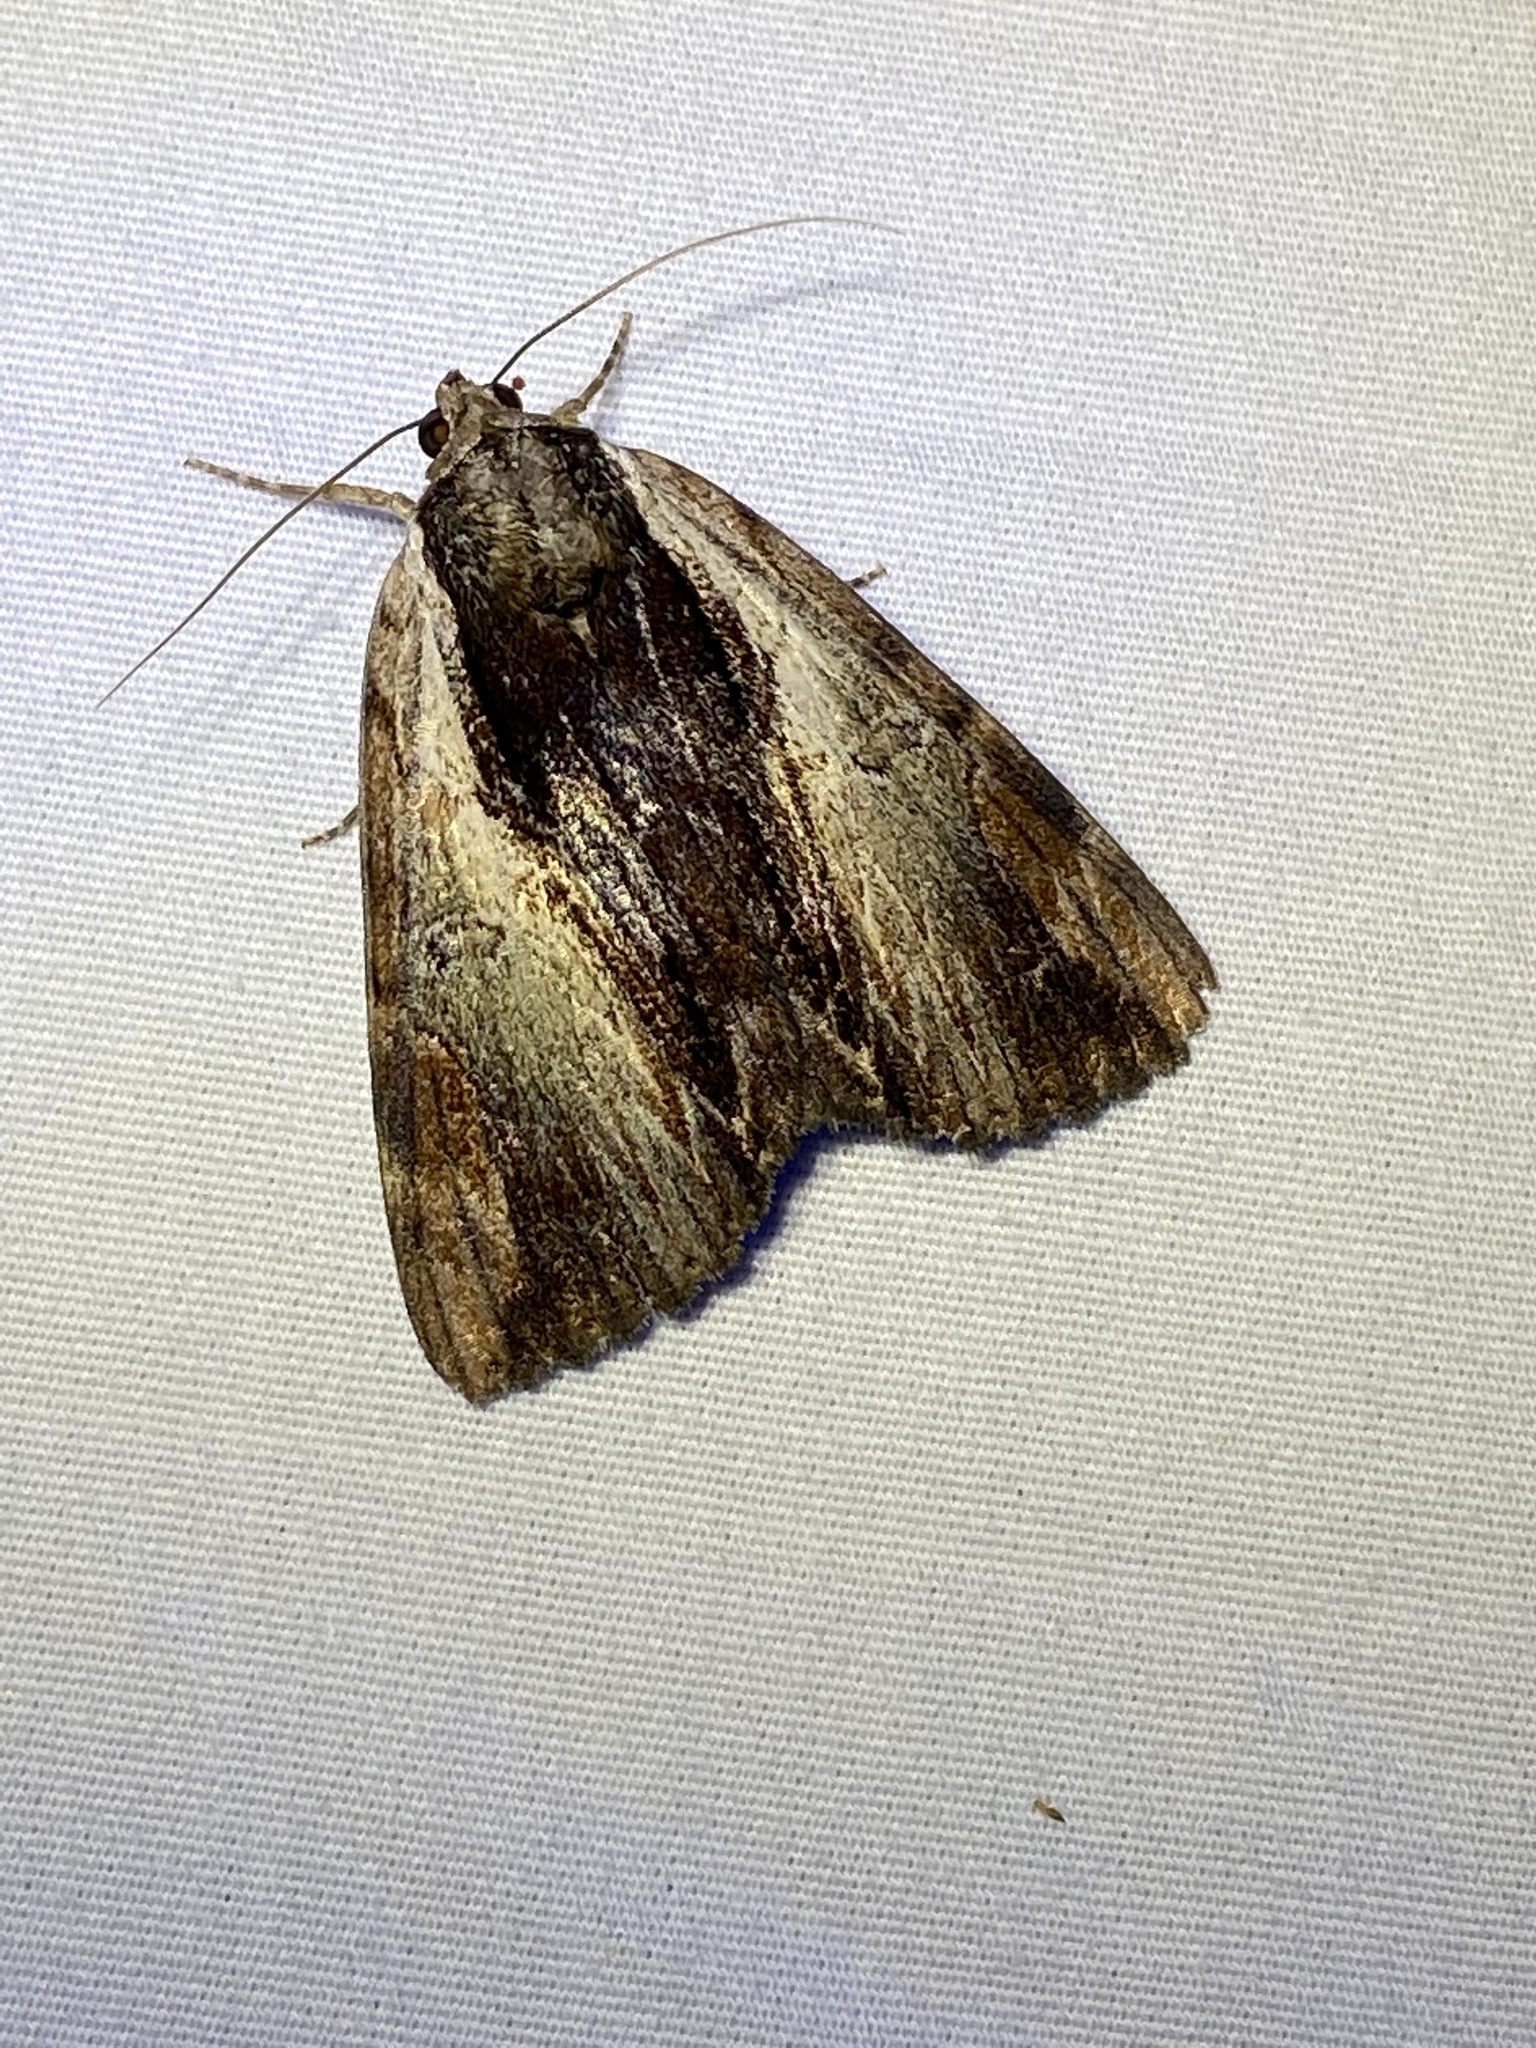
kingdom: Animalia
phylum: Arthropoda
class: Insecta
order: Lepidoptera
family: Erebidae
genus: Catocala
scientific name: Catocala ultronia
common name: Ultronia underwing
